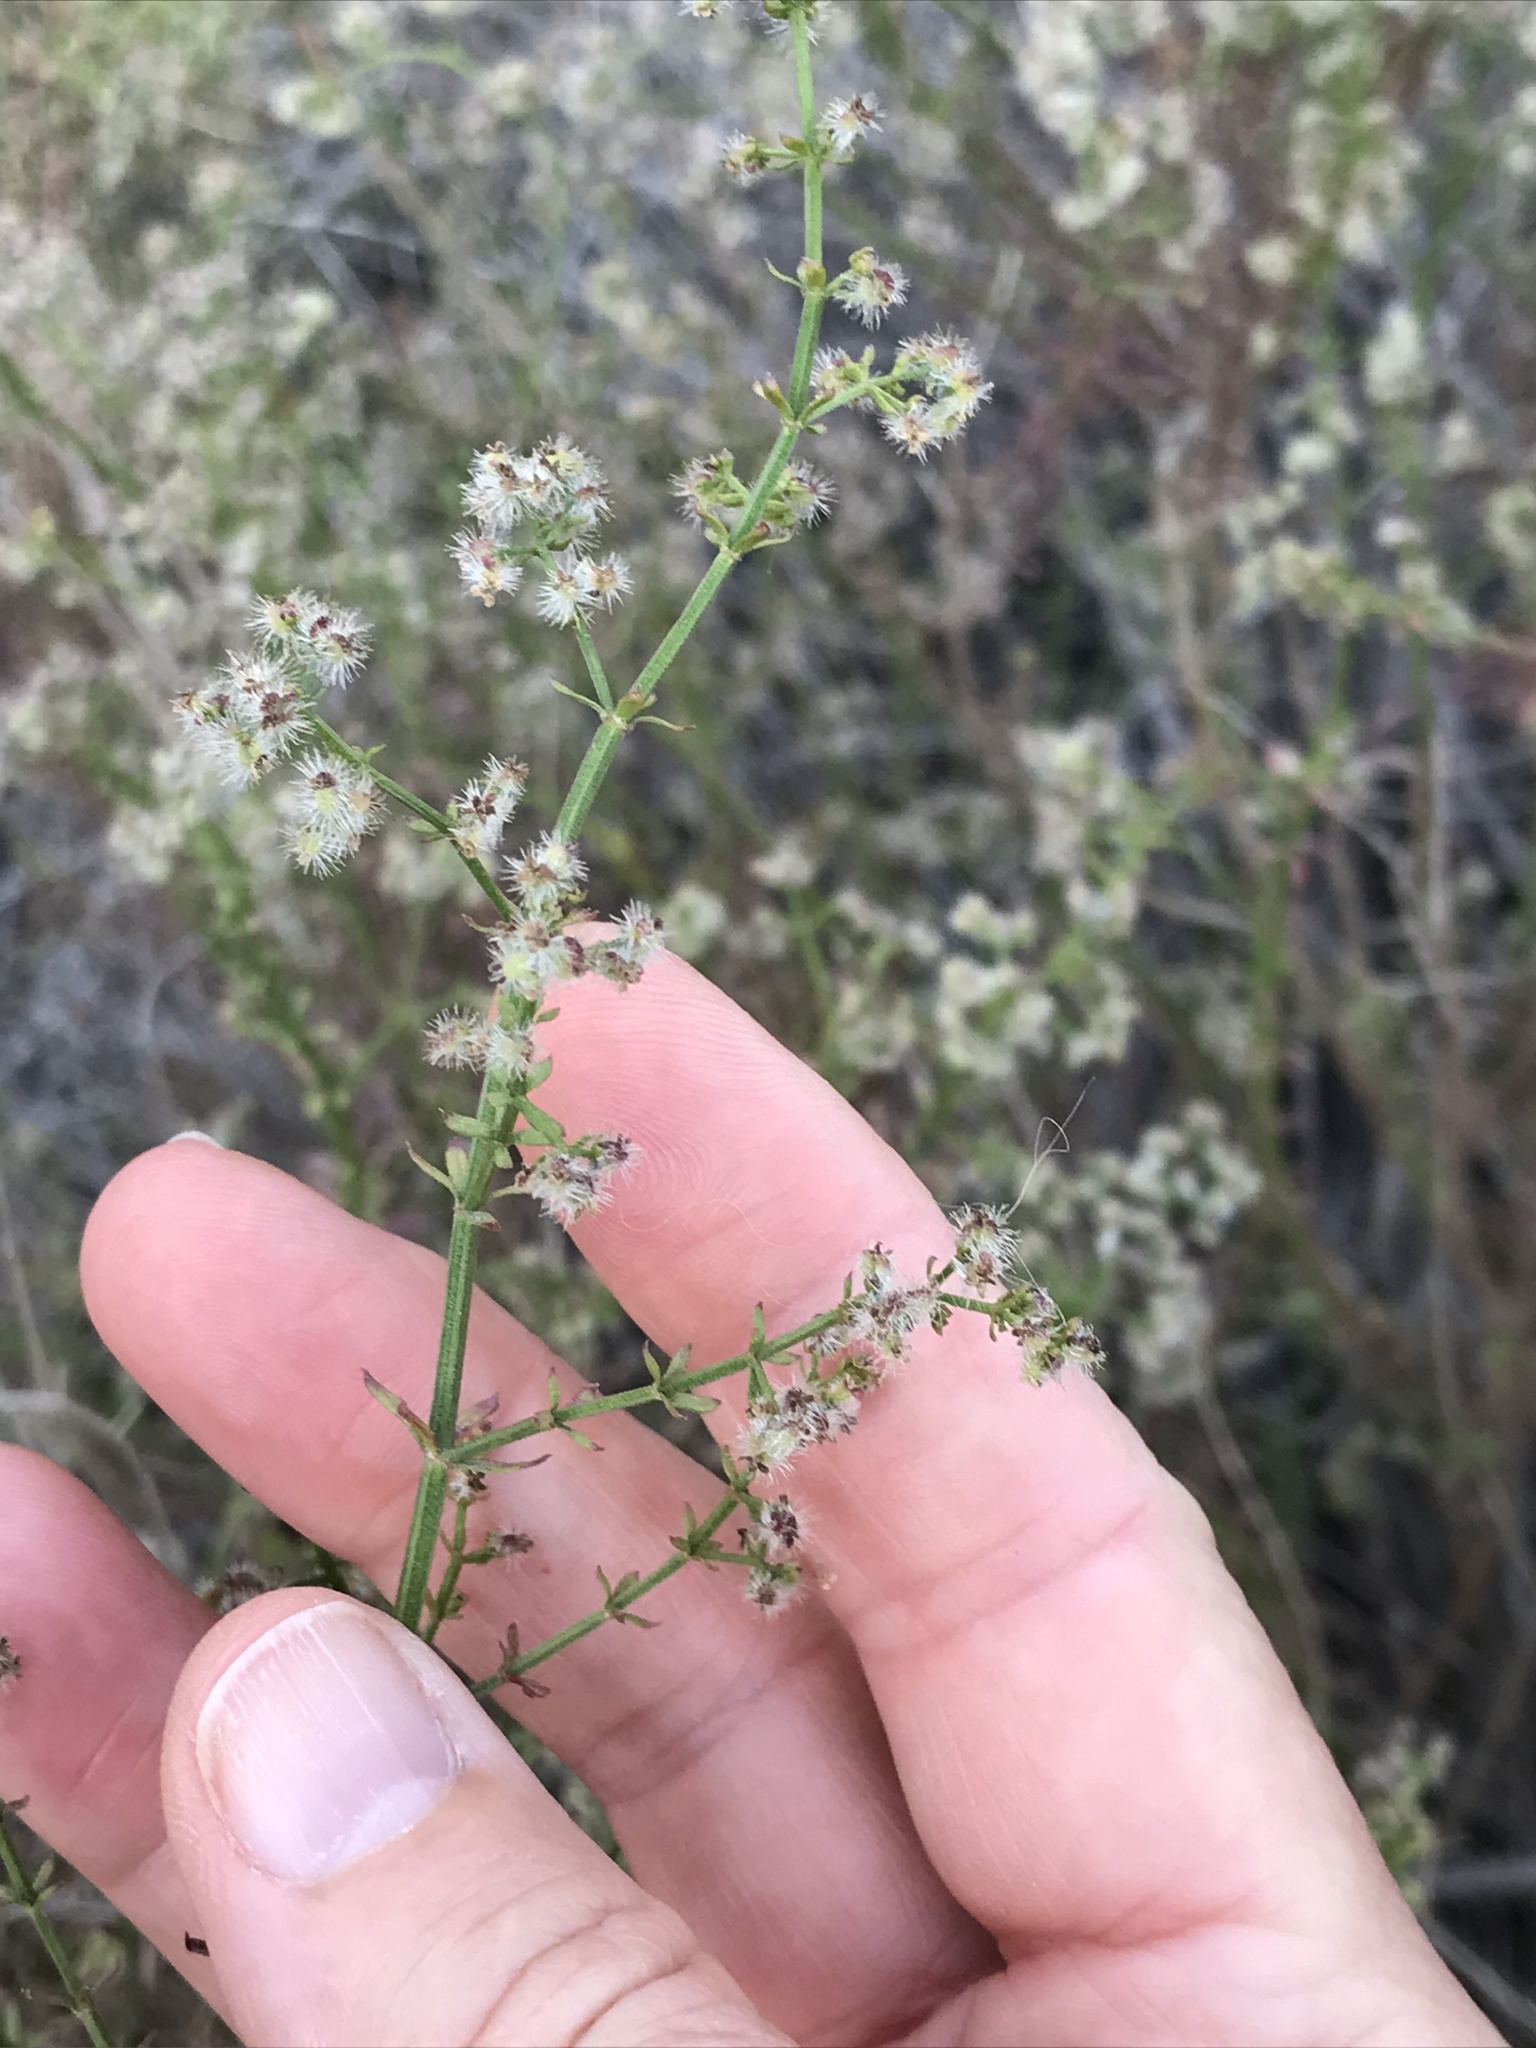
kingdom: Plantae
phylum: Tracheophyta
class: Magnoliopsida
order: Gentianales
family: Rubiaceae
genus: Galium
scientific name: Galium angustifolium
